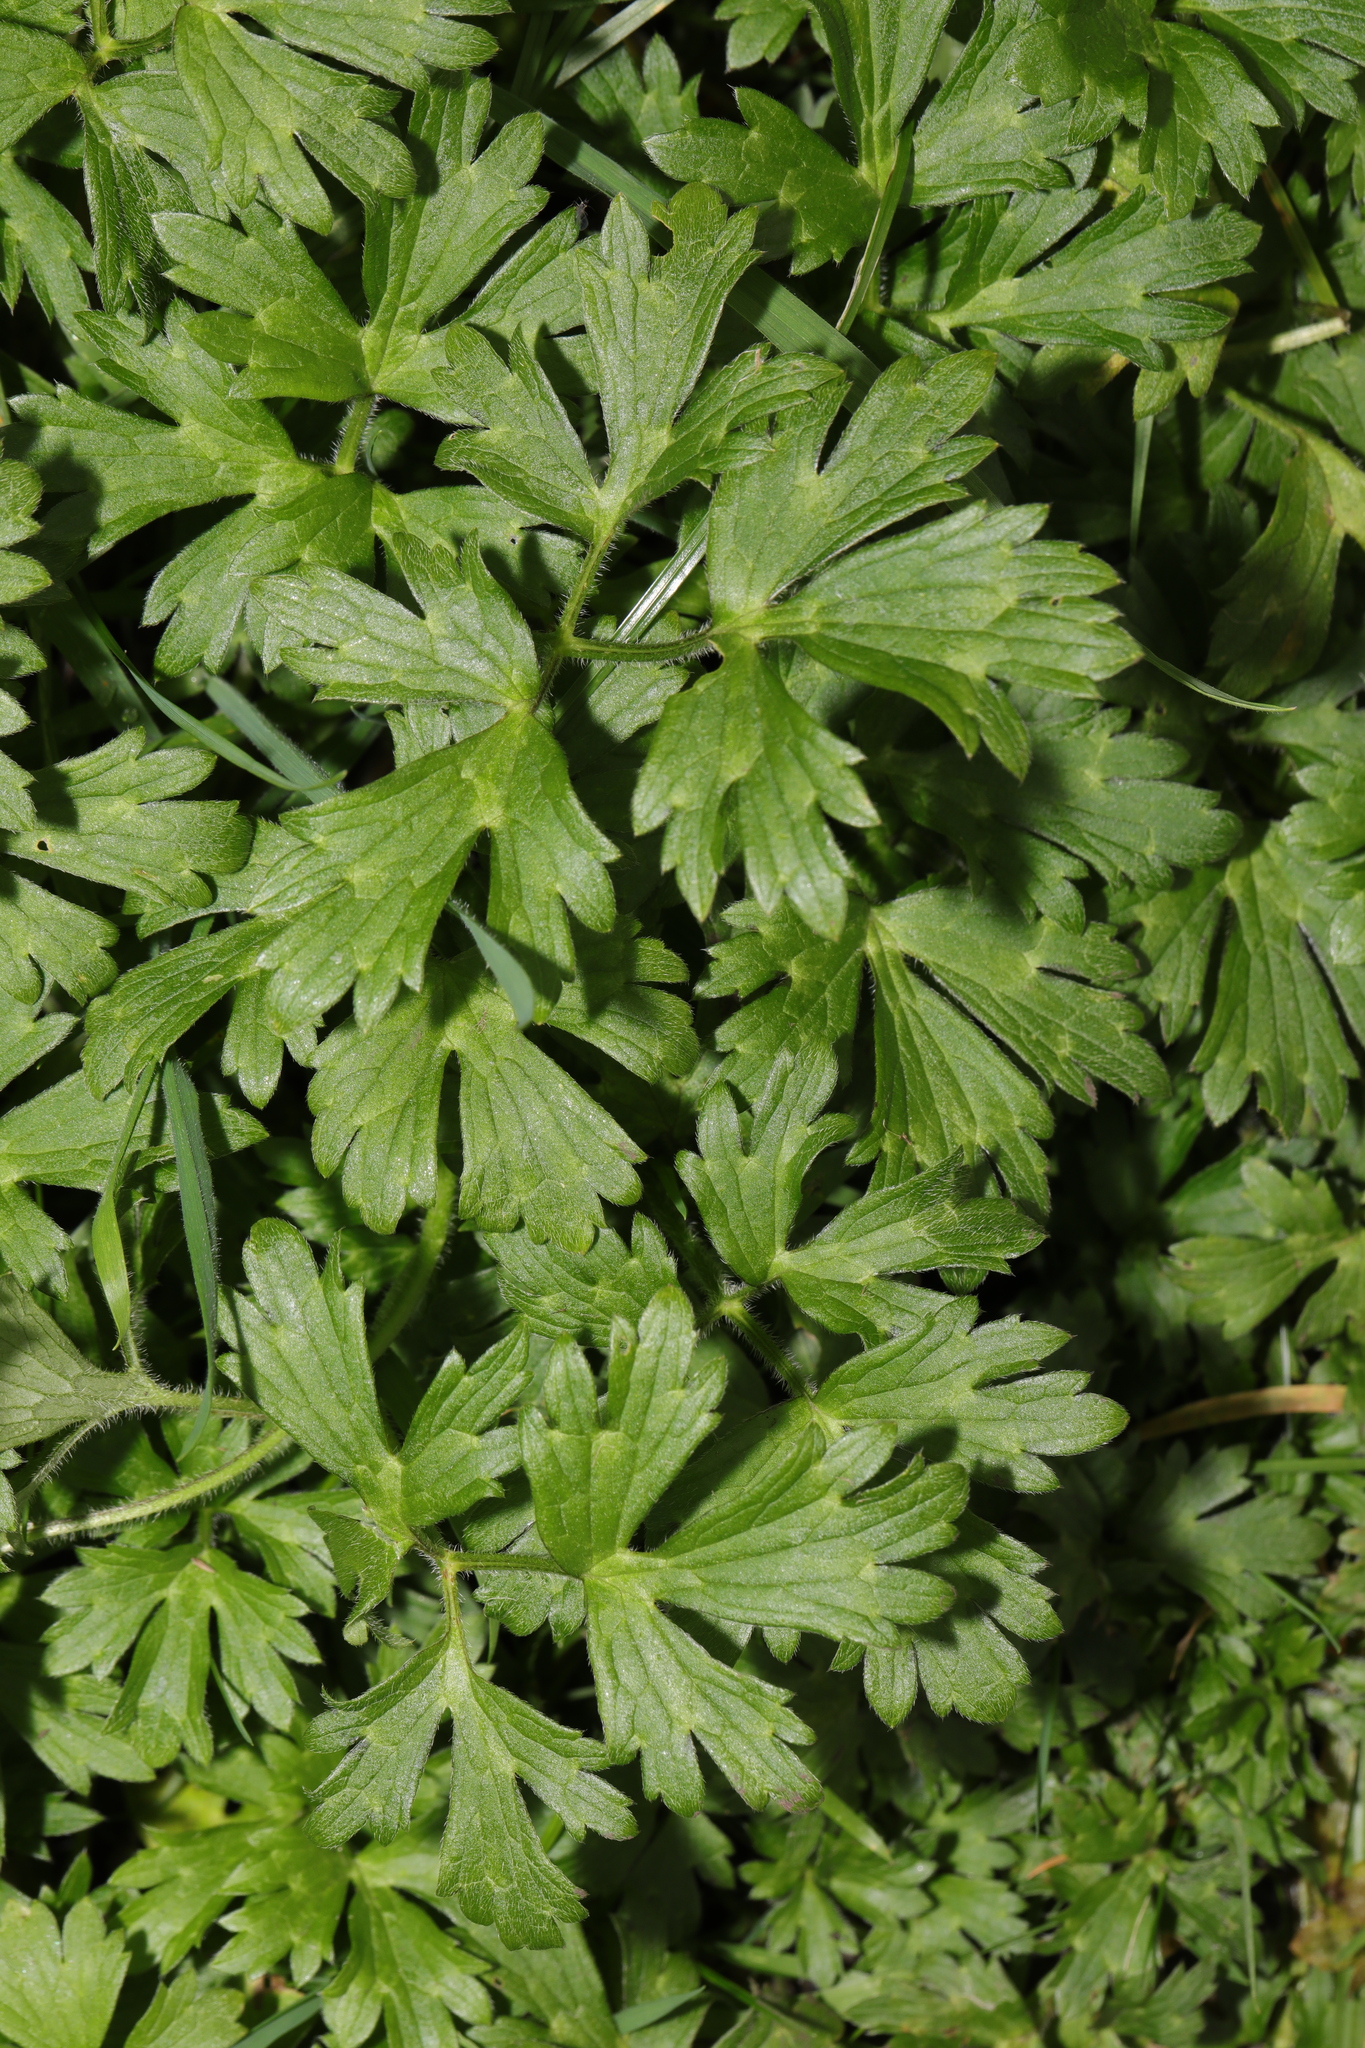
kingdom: Plantae
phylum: Tracheophyta
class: Magnoliopsida
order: Ranunculales
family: Ranunculaceae
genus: Ranunculus
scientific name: Ranunculus repens
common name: Creeping buttercup
